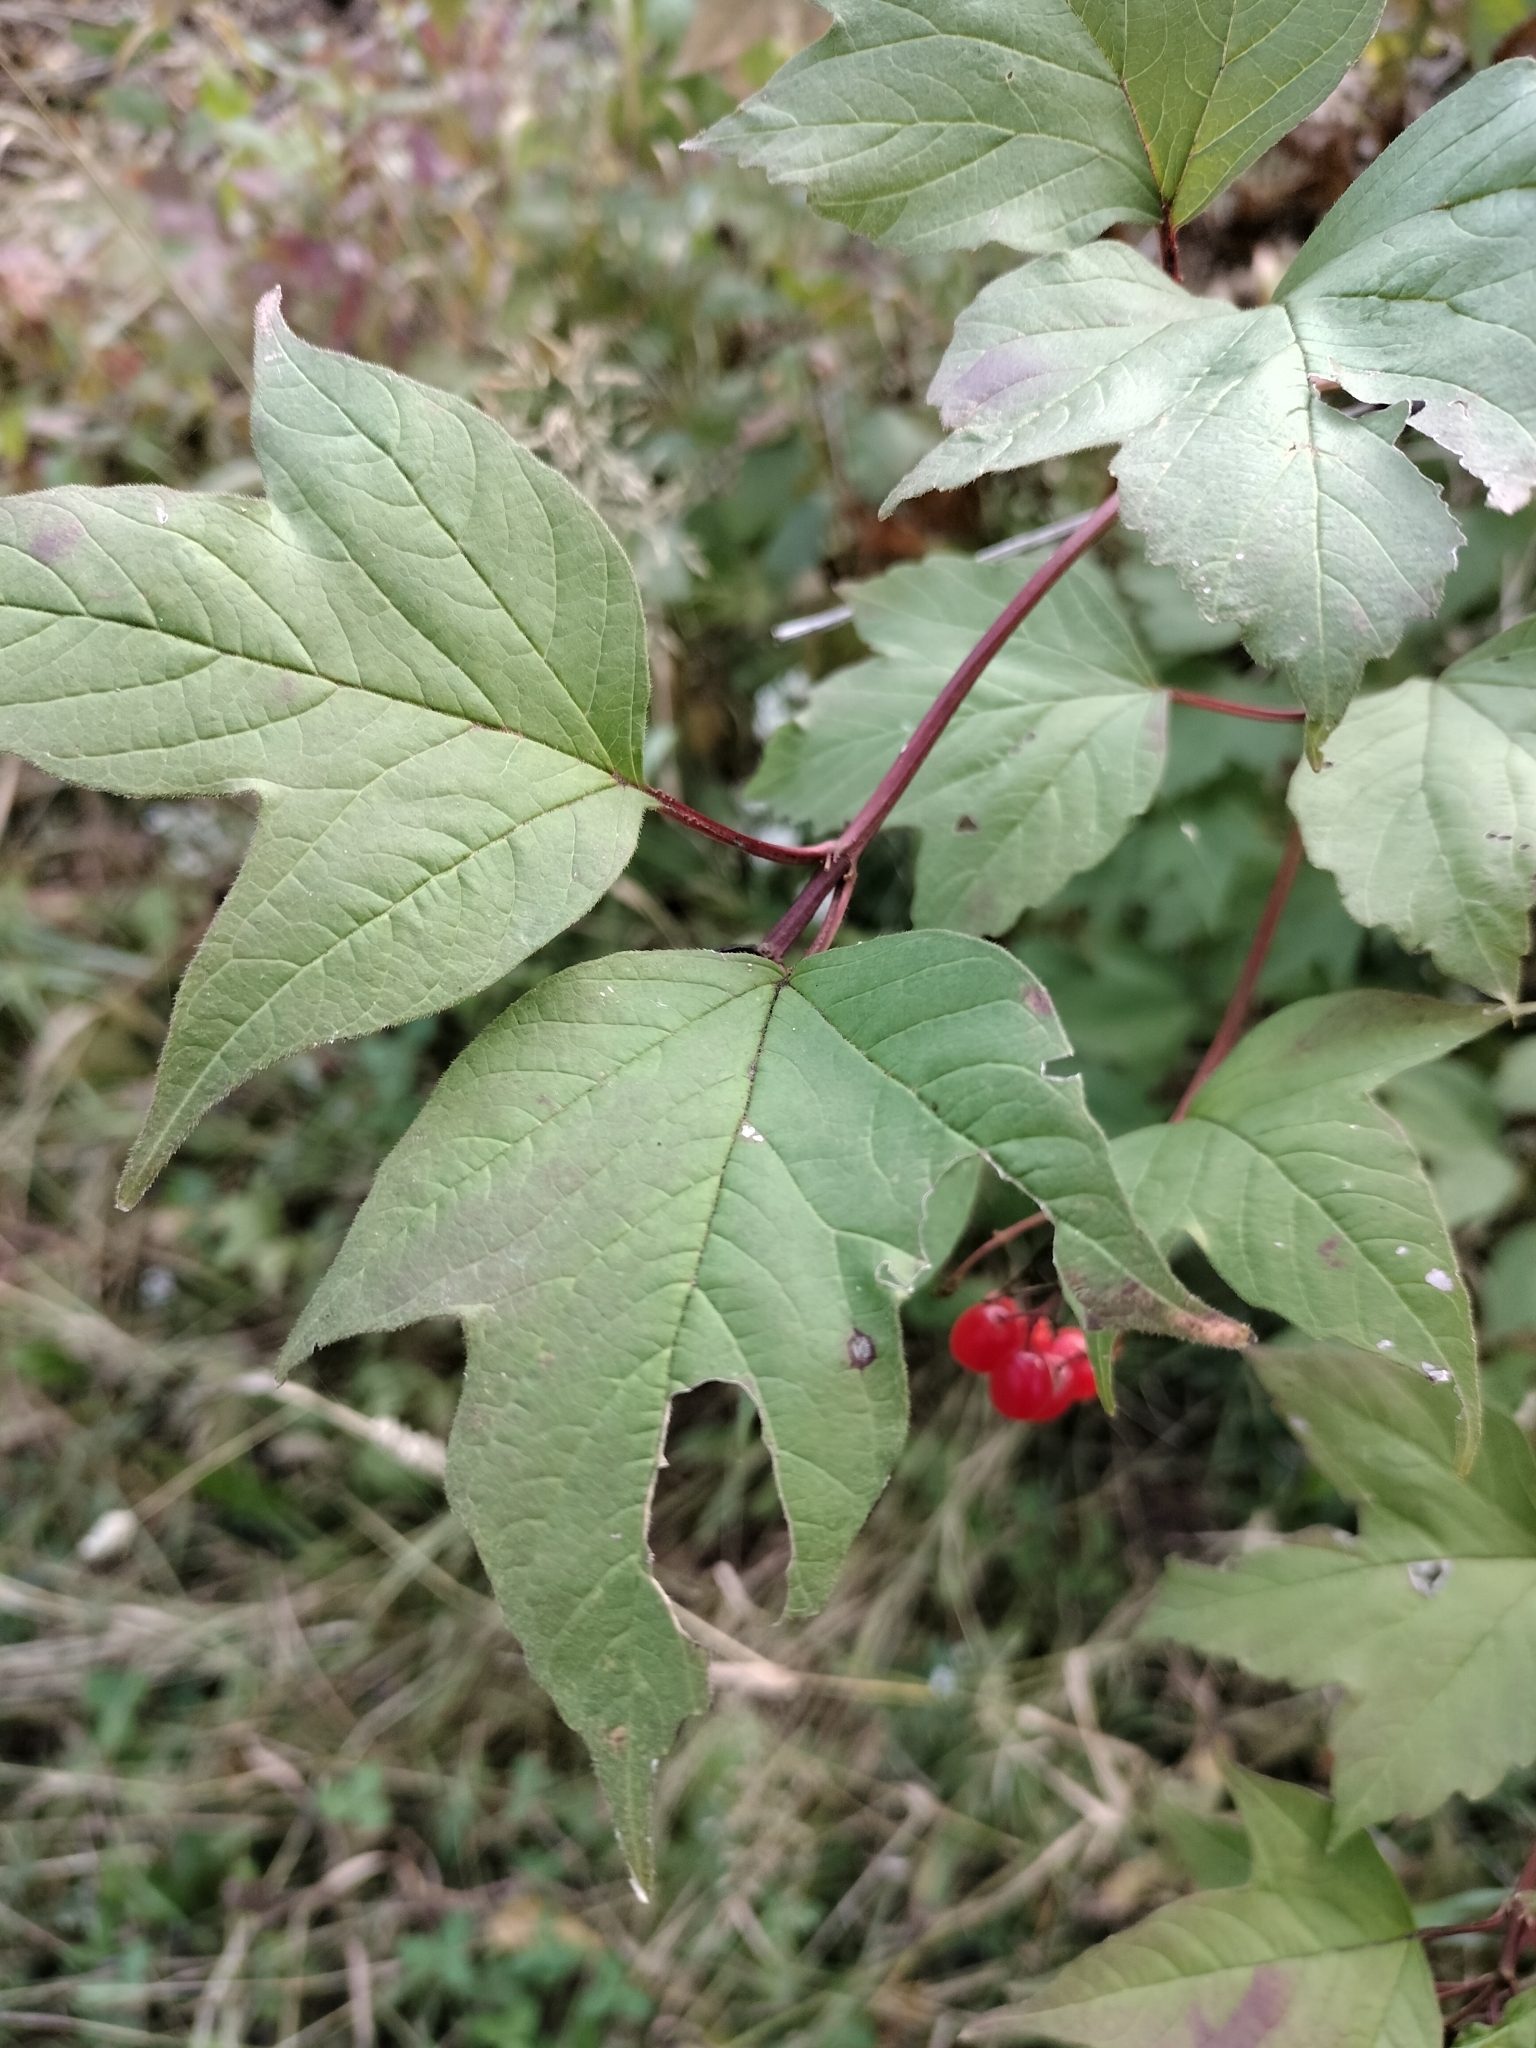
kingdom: Plantae
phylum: Tracheophyta
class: Magnoliopsida
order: Dipsacales
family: Viburnaceae
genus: Viburnum
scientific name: Viburnum opulus
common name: Guelder-rose
